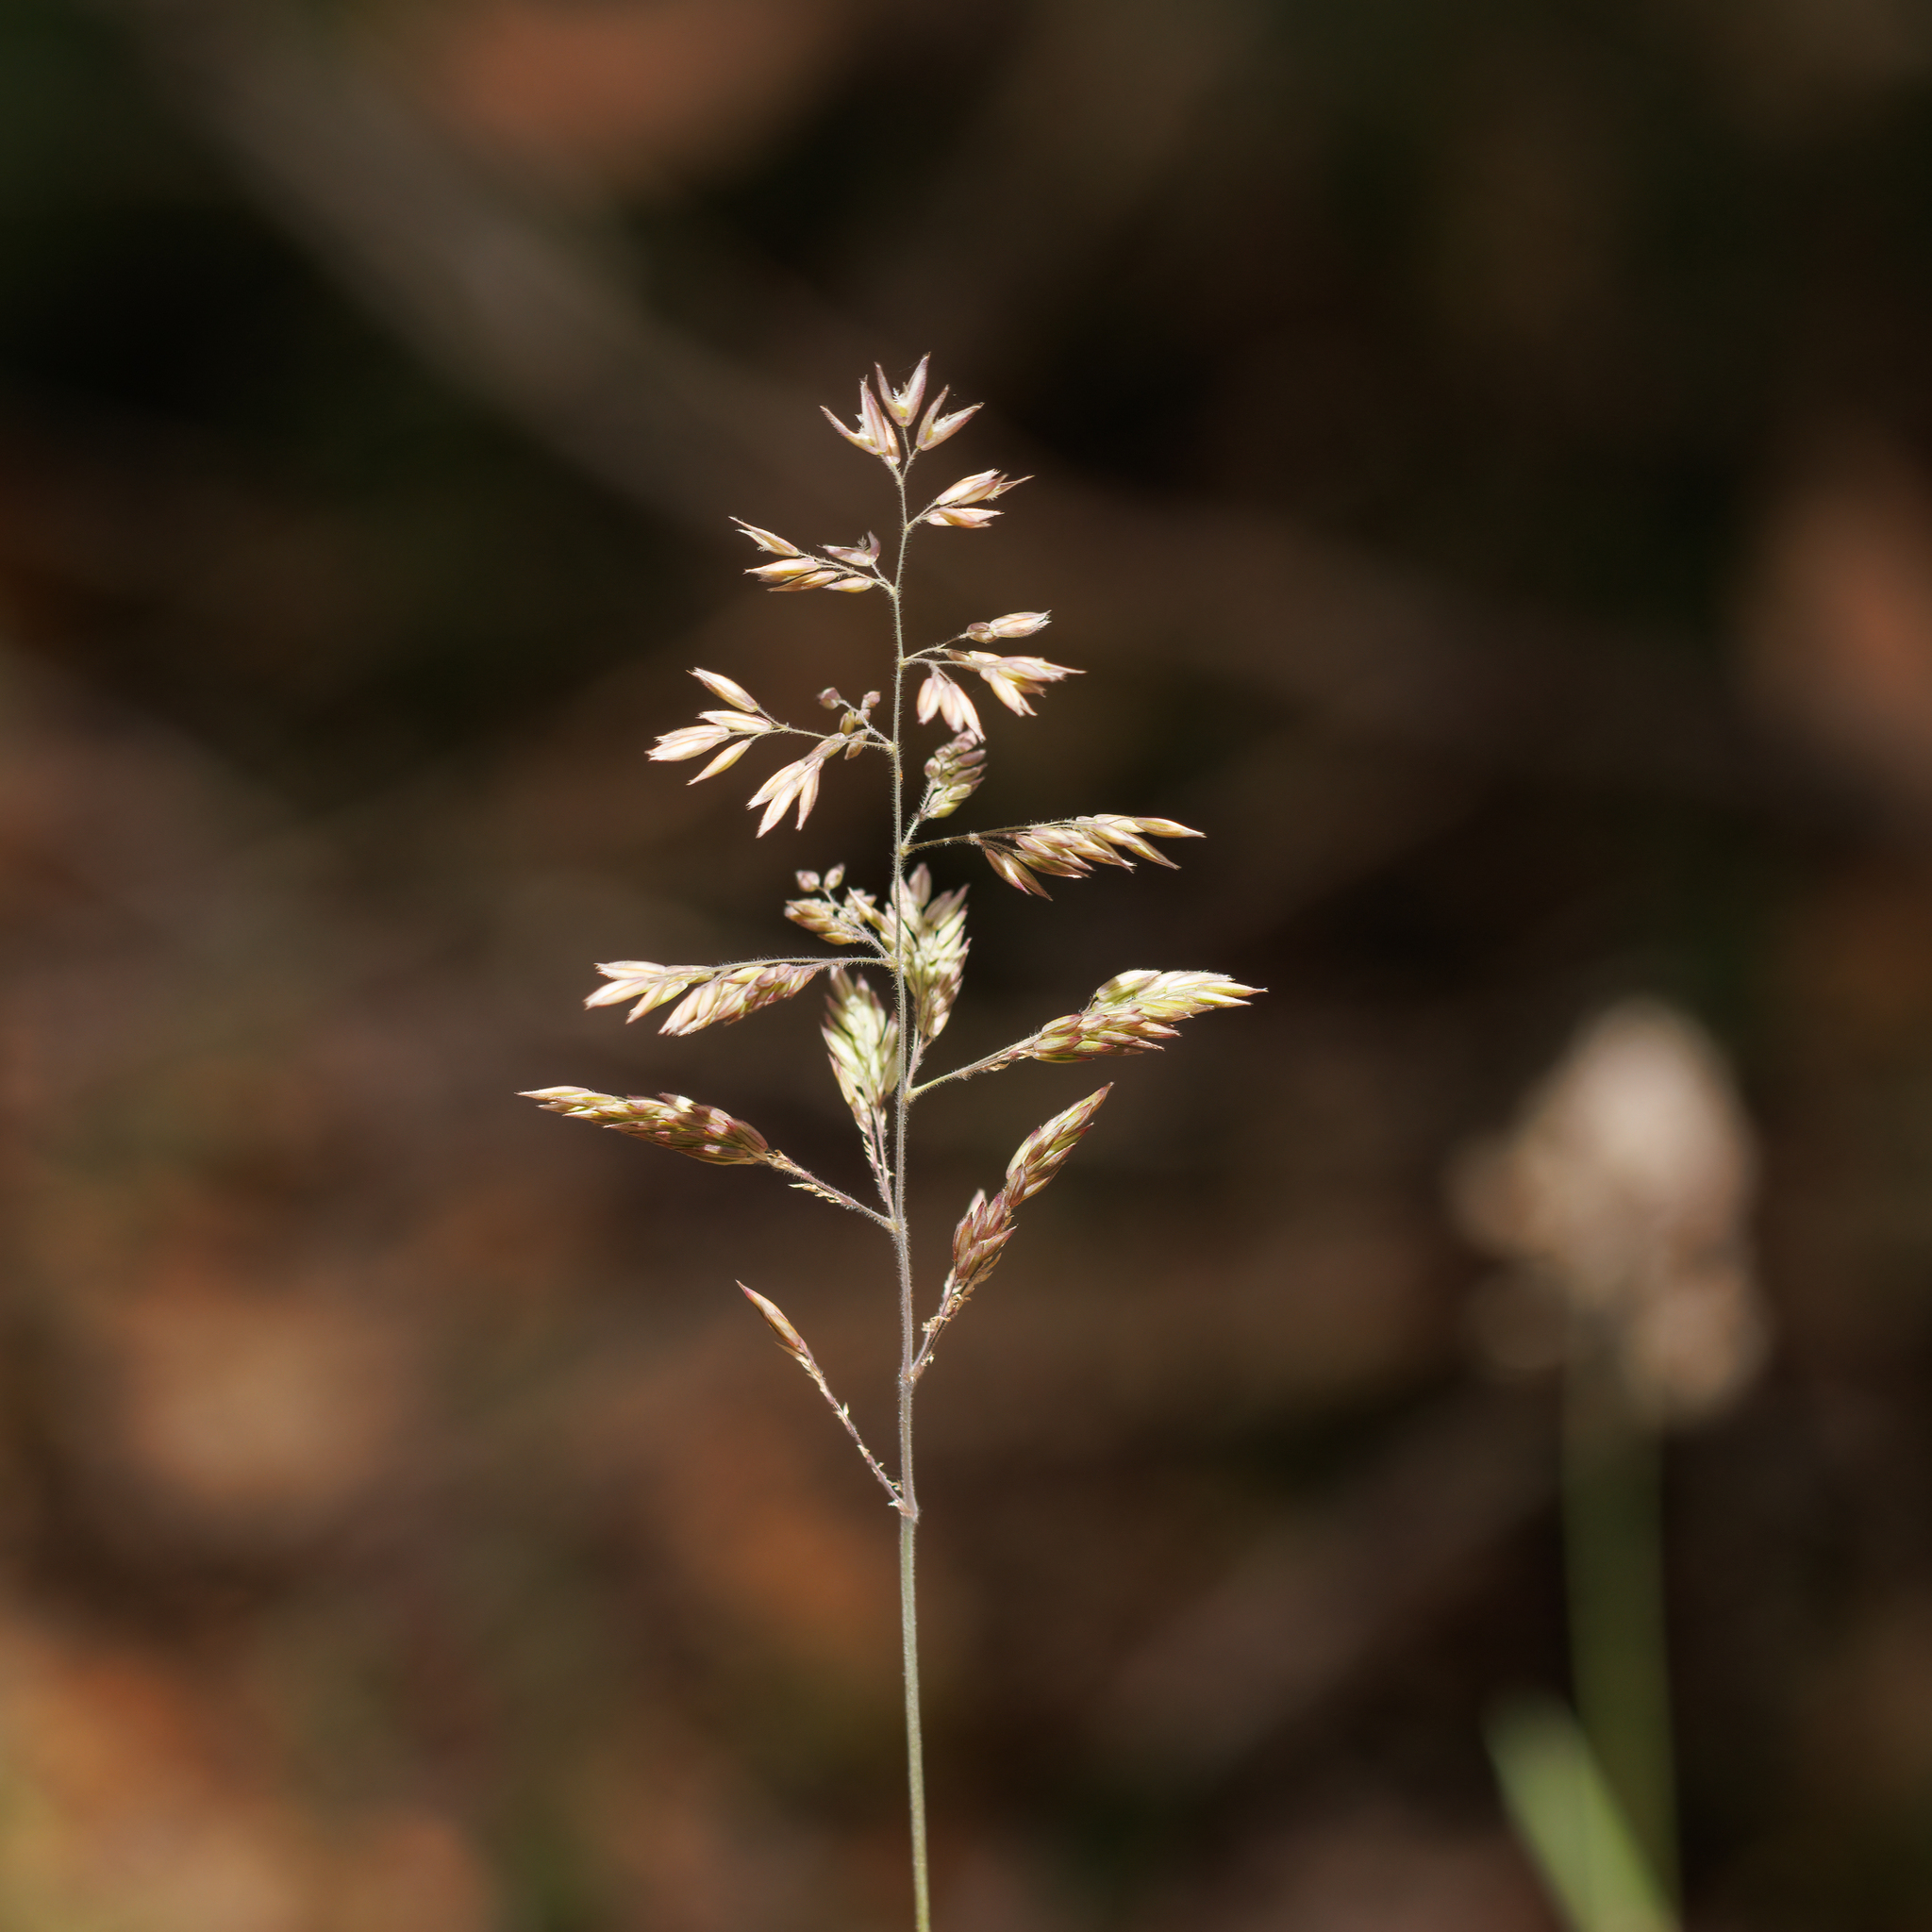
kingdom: Plantae
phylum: Tracheophyta
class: Liliopsida
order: Poales
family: Poaceae
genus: Holcus
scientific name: Holcus lanatus
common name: Yorkshire-fog
